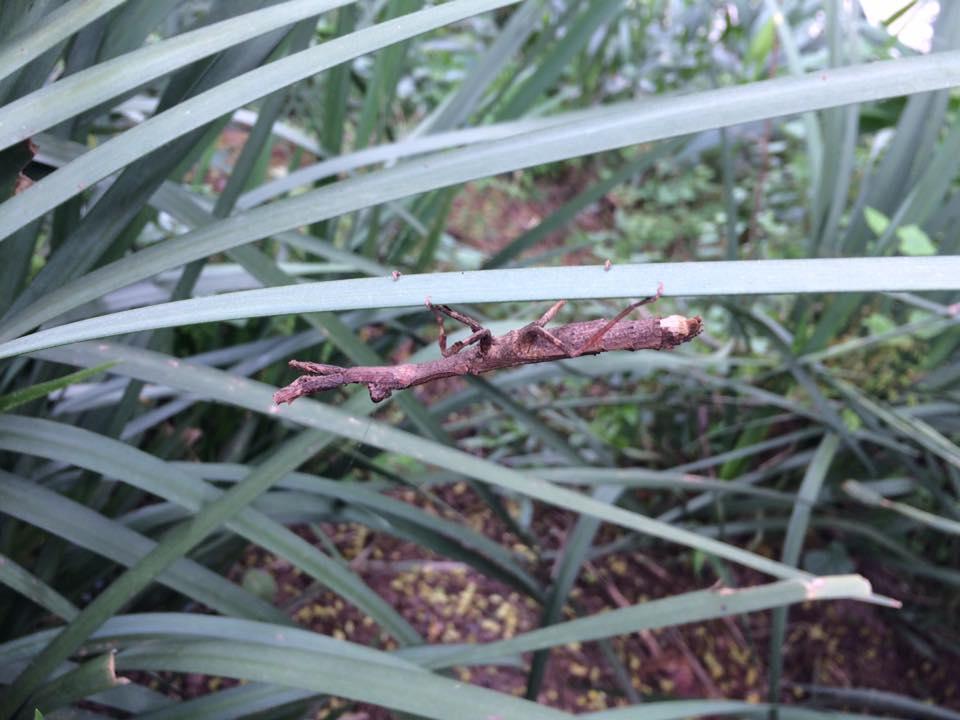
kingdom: Animalia
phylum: Arthropoda
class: Insecta
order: Mantodea
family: Deroplatyidae
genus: Popa
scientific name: Popa spurca
